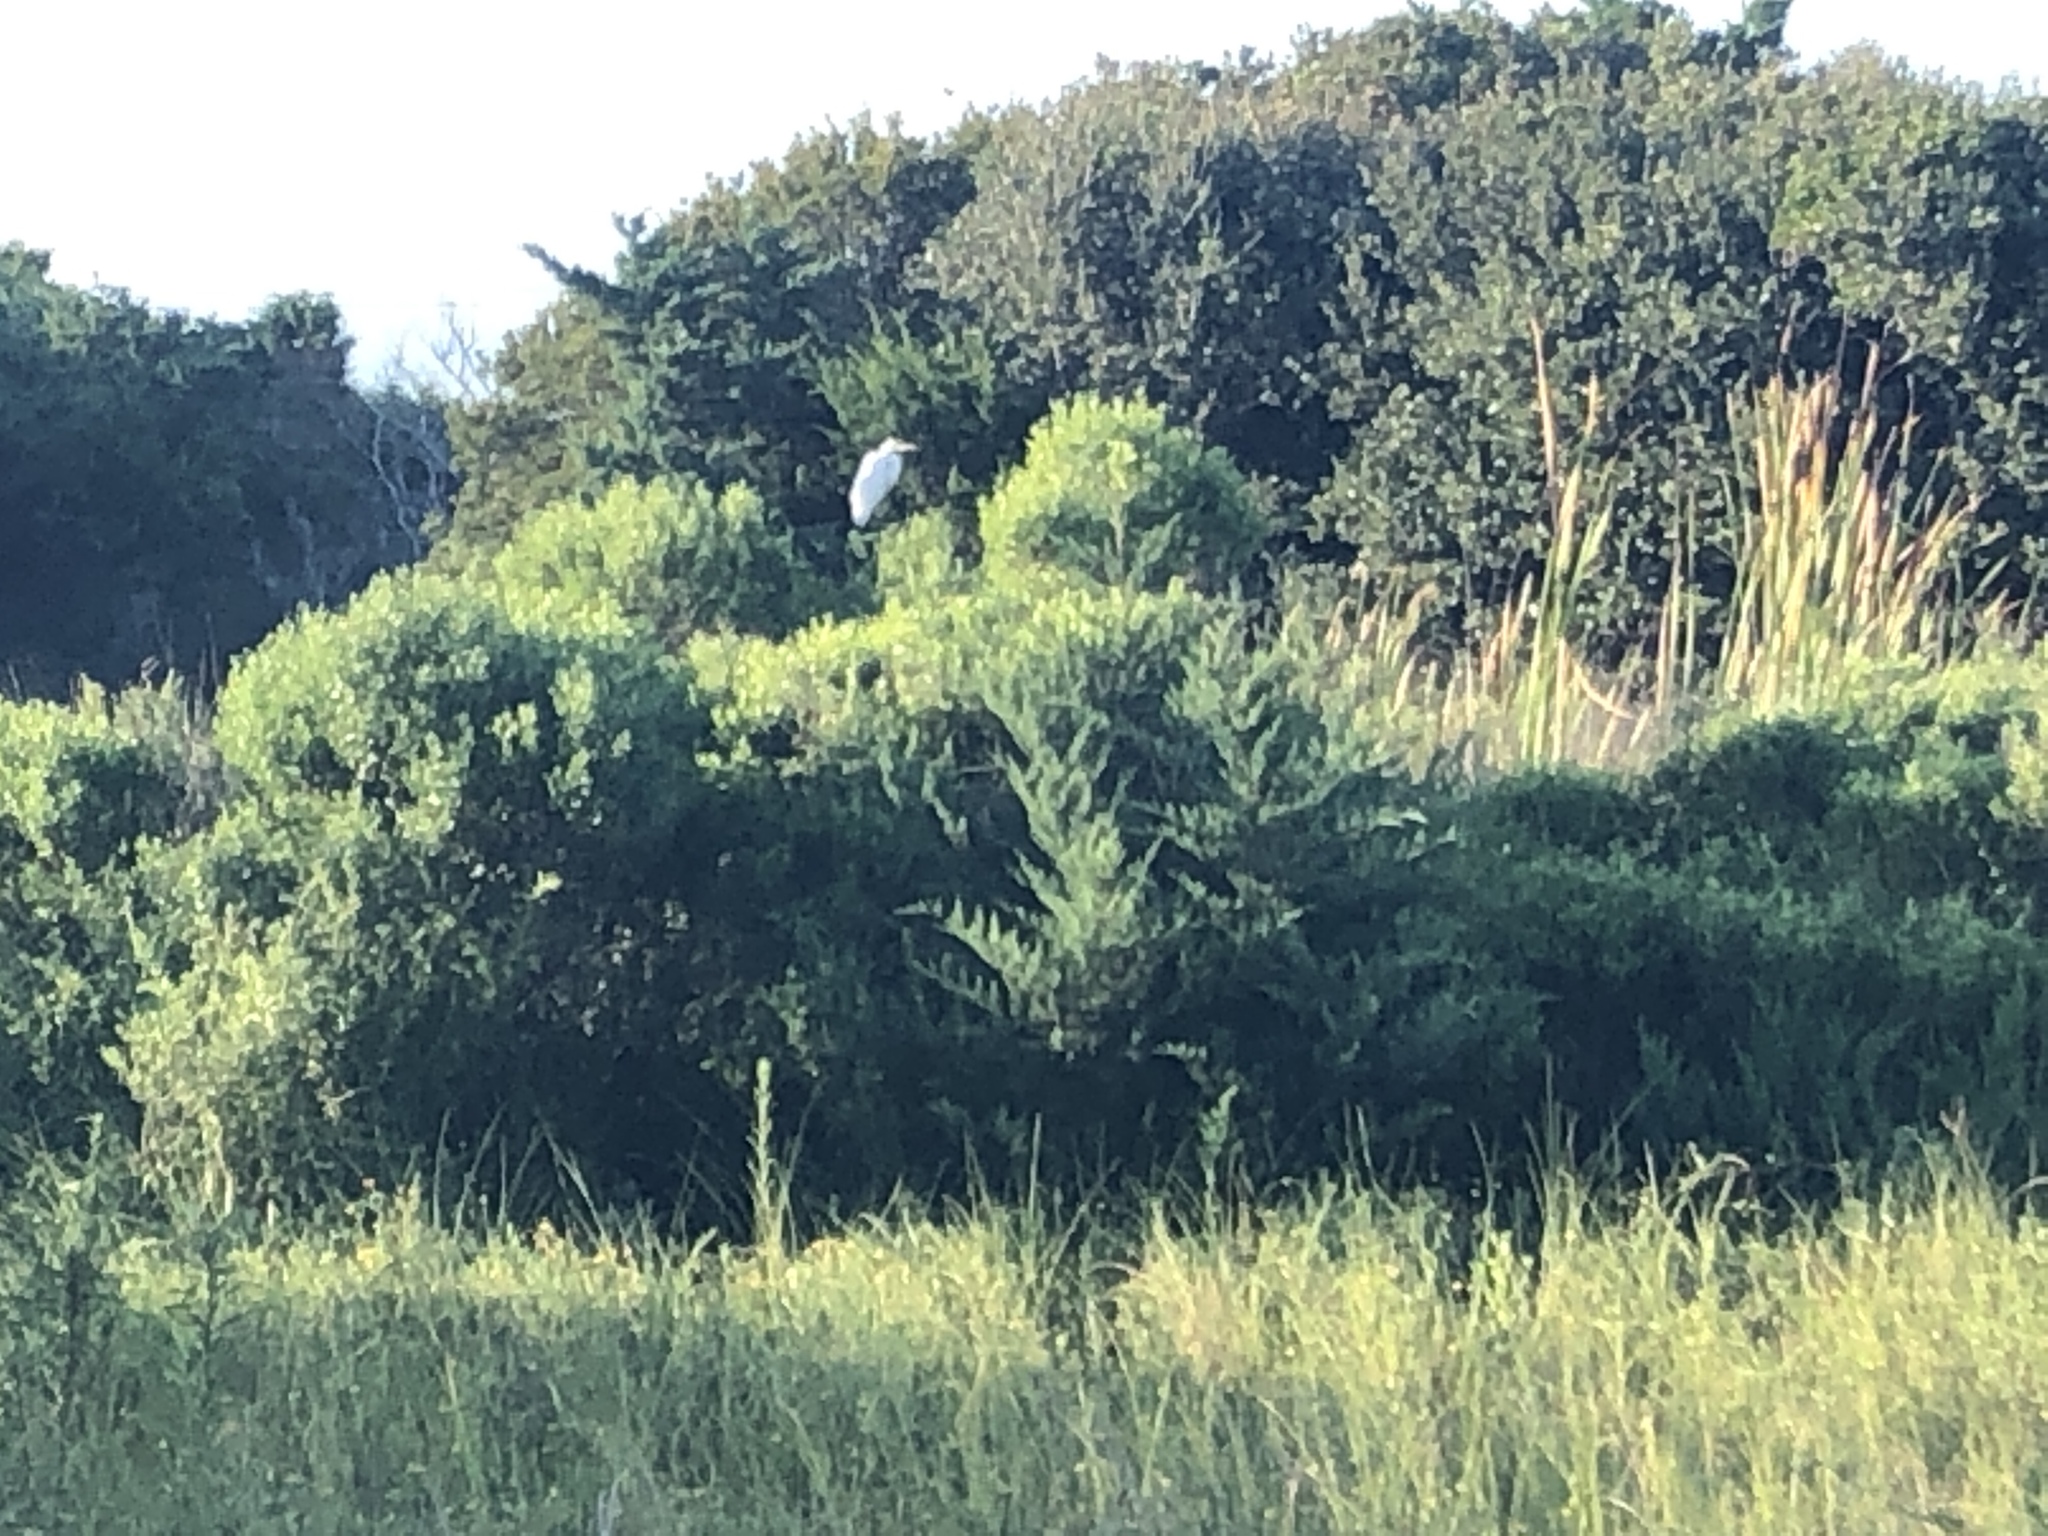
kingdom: Animalia
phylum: Chordata
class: Aves
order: Pelecaniformes
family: Ardeidae
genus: Ardea
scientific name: Ardea alba
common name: Great egret
